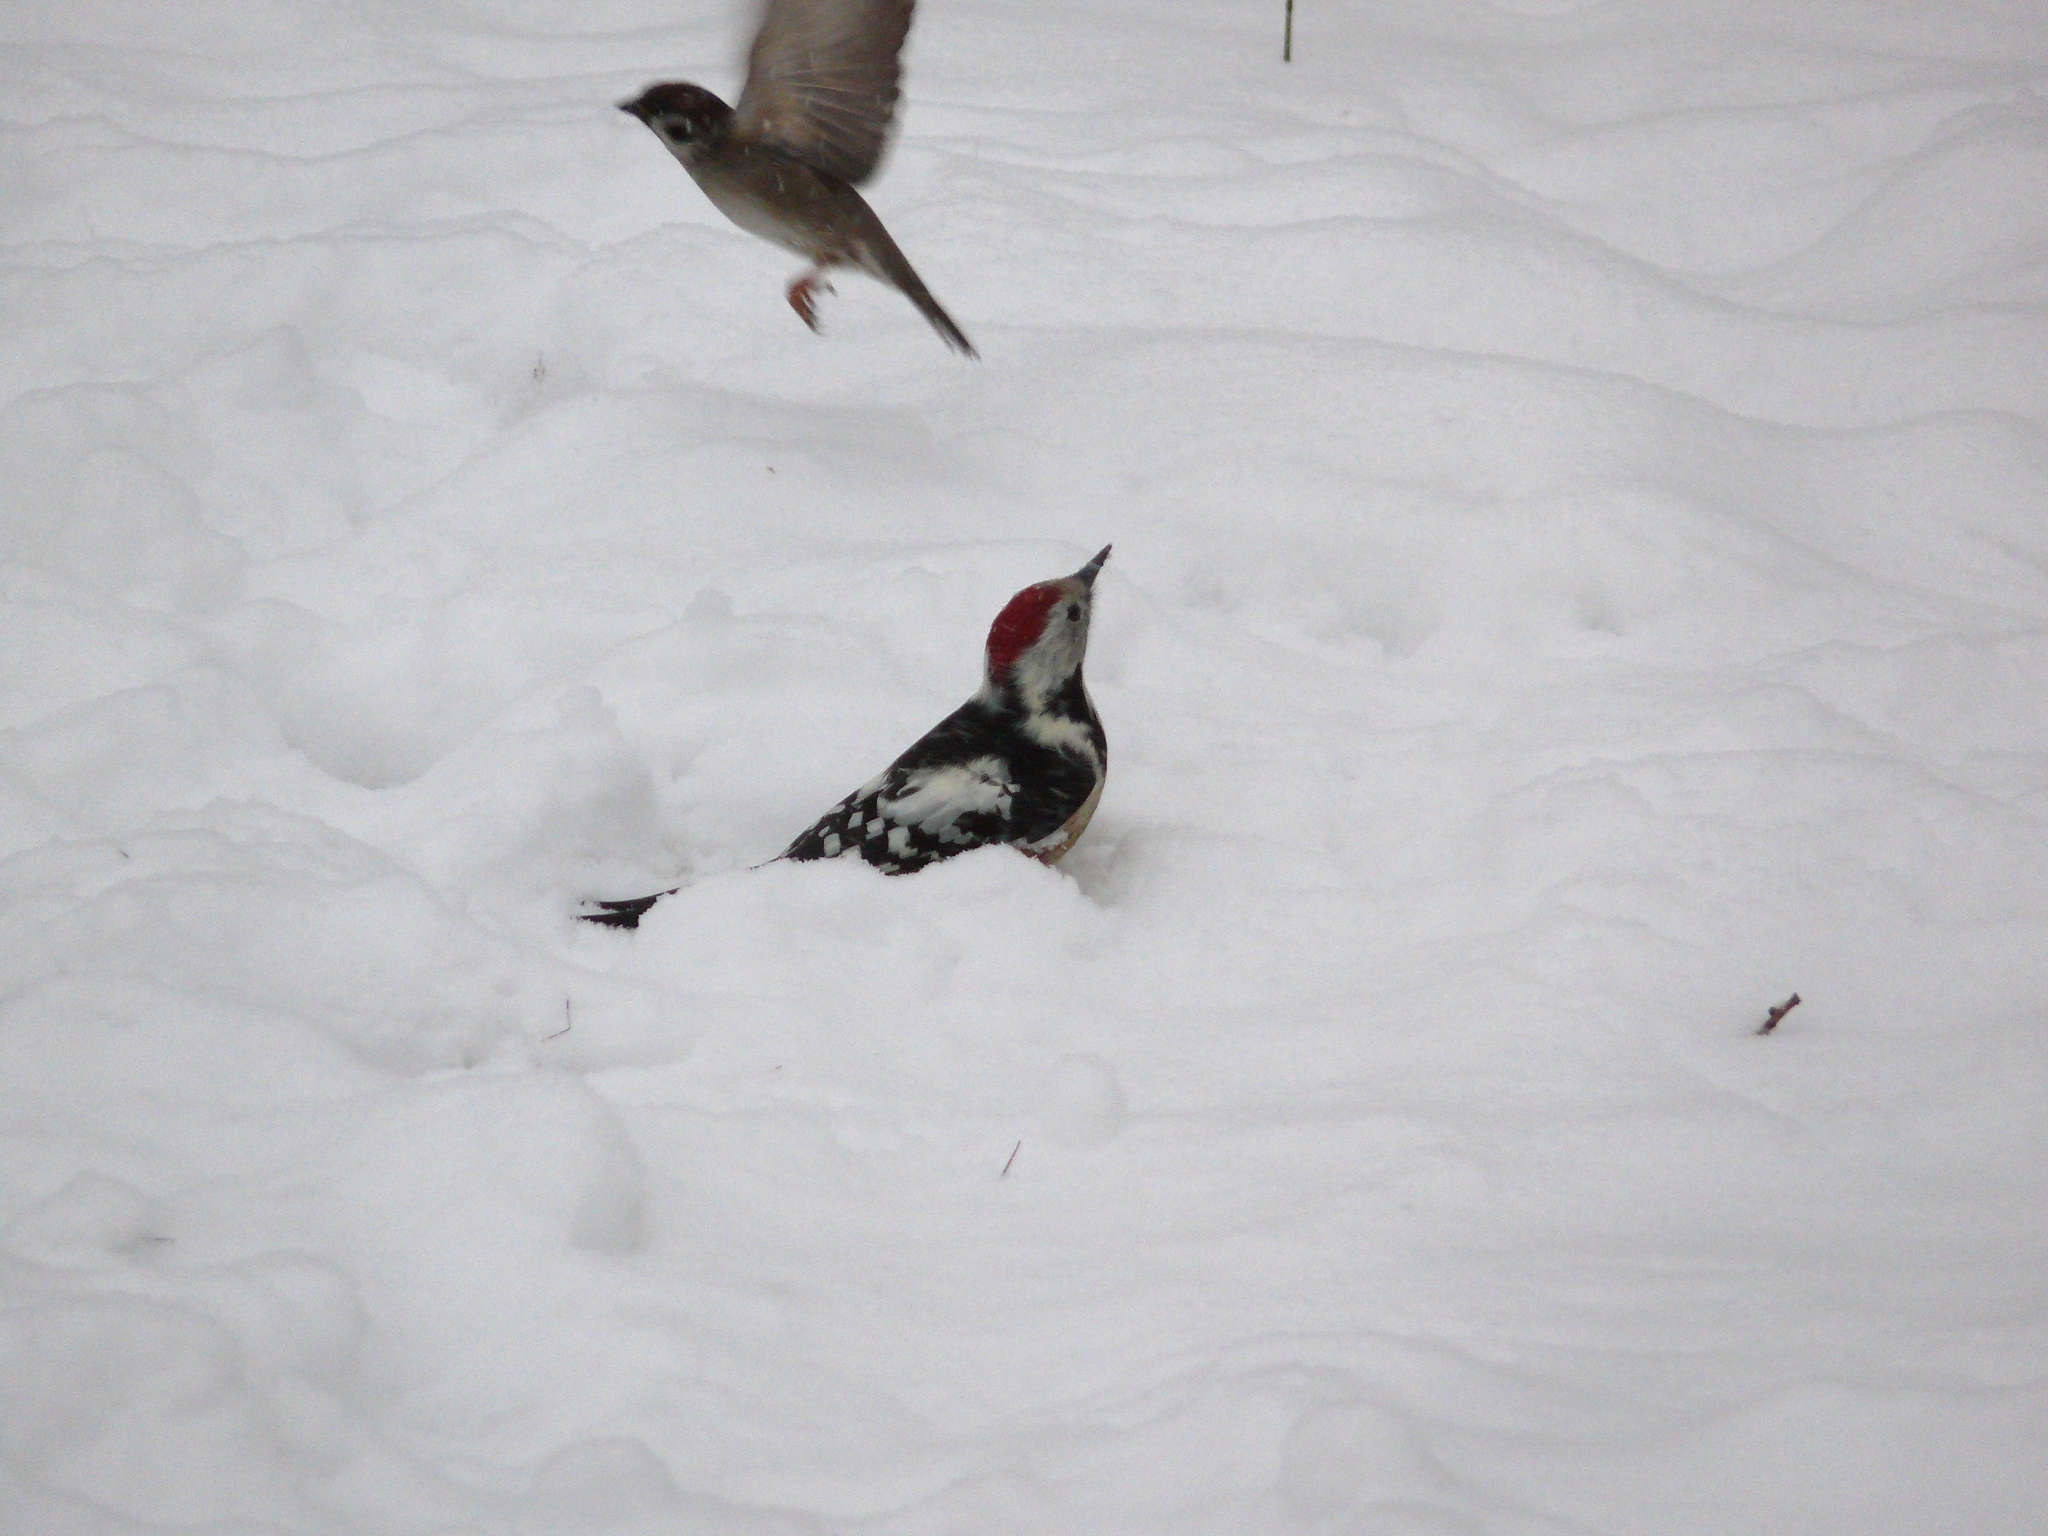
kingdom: Animalia
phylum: Chordata
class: Aves
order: Piciformes
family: Picidae
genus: Dendrocoptes
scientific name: Dendrocoptes medius
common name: Middle spotted woodpecker
